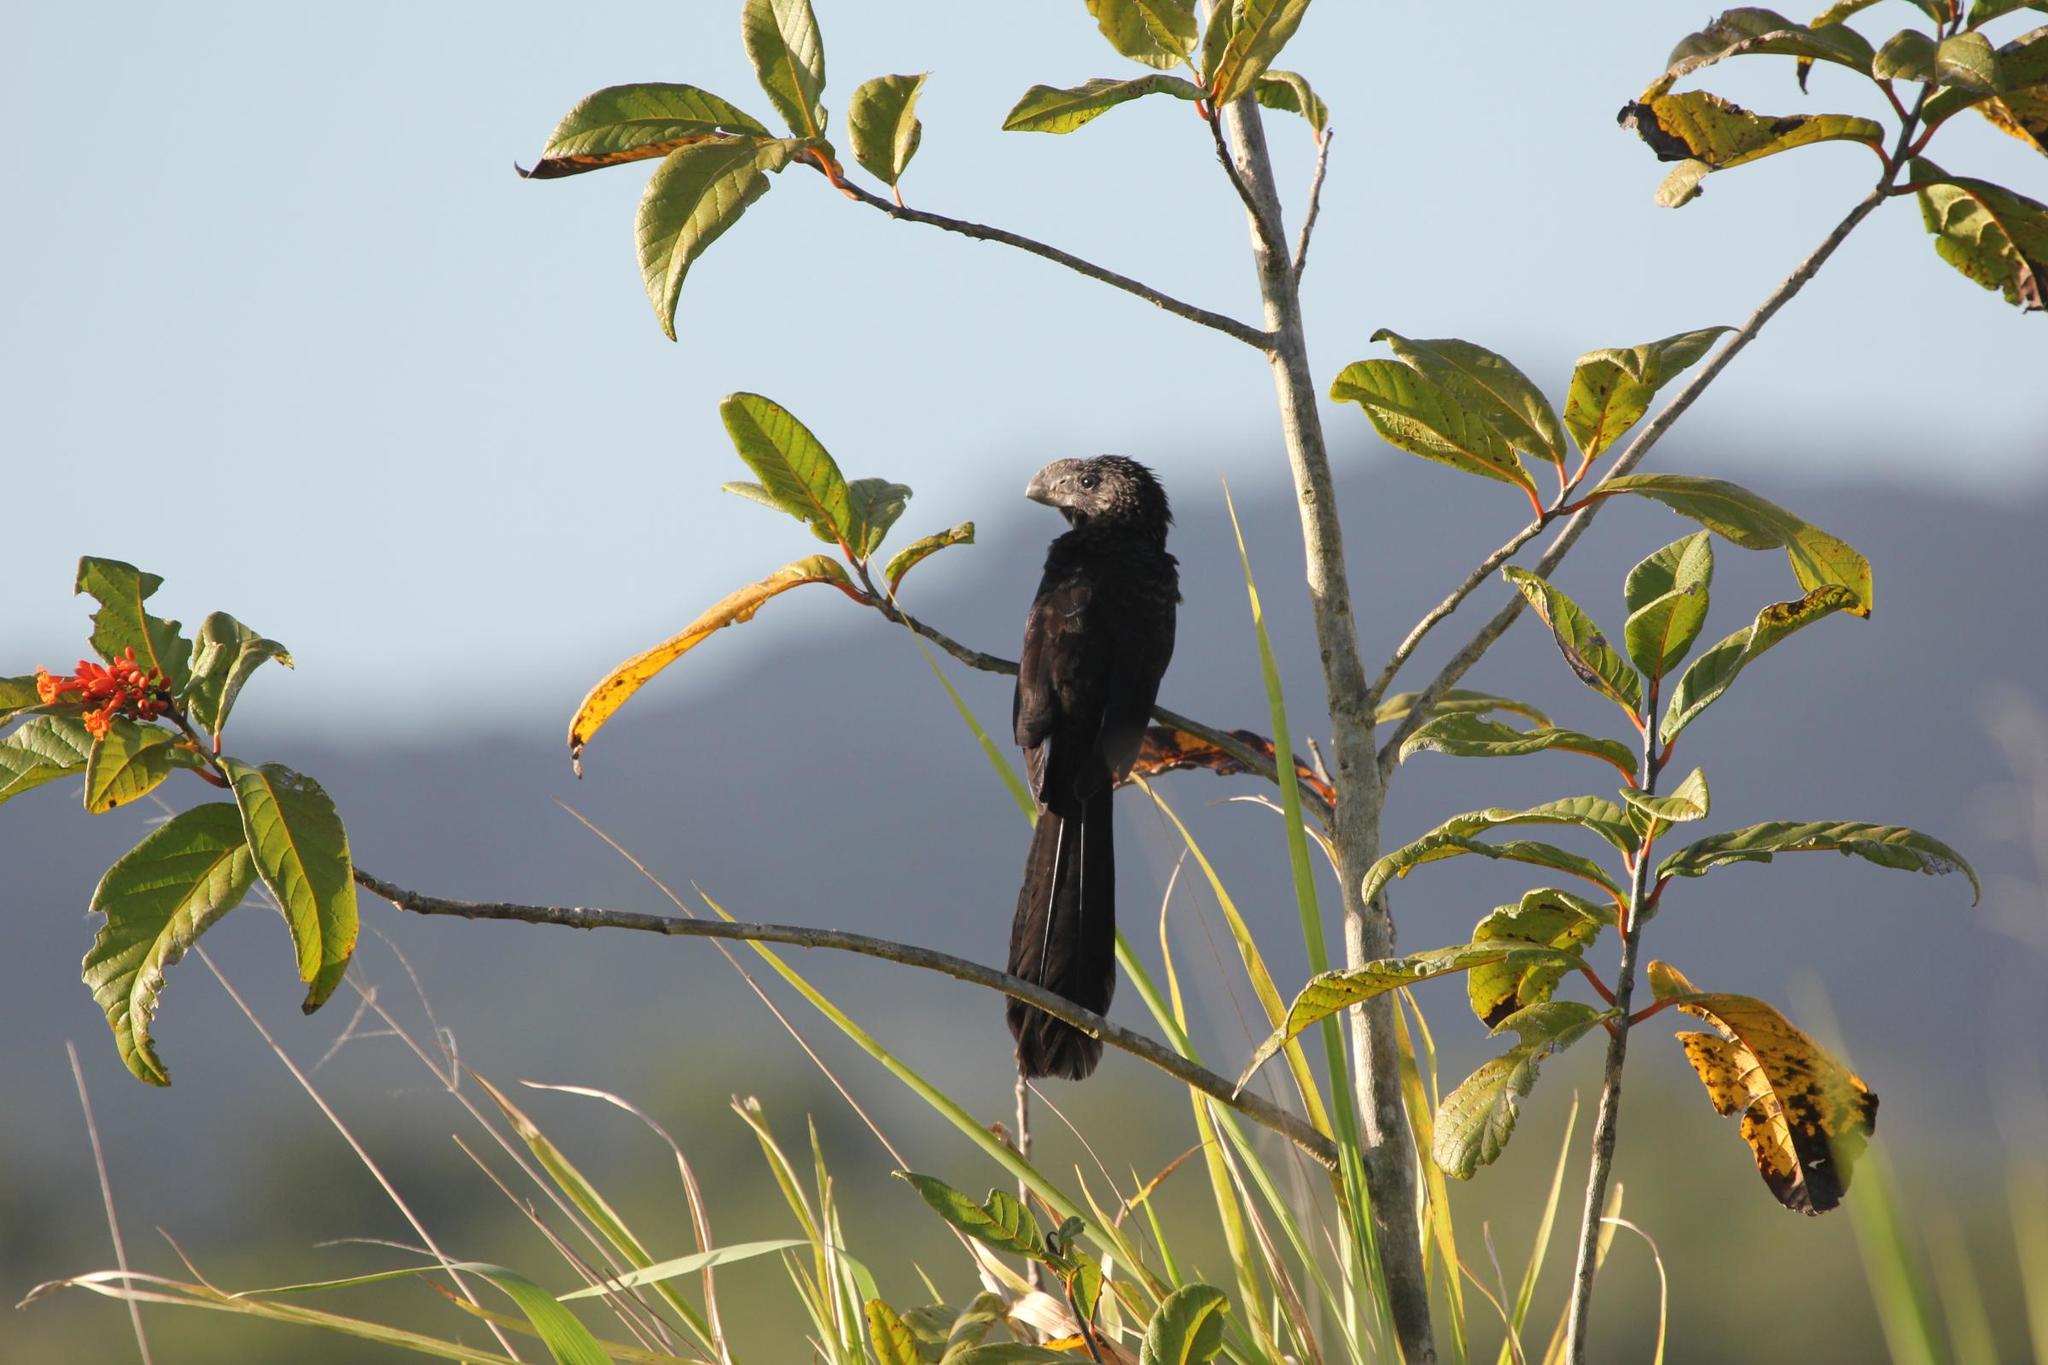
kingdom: Animalia
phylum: Chordata
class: Aves
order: Cuculiformes
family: Cuculidae
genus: Crotophaga
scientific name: Crotophaga ani
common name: Smooth-billed ani
